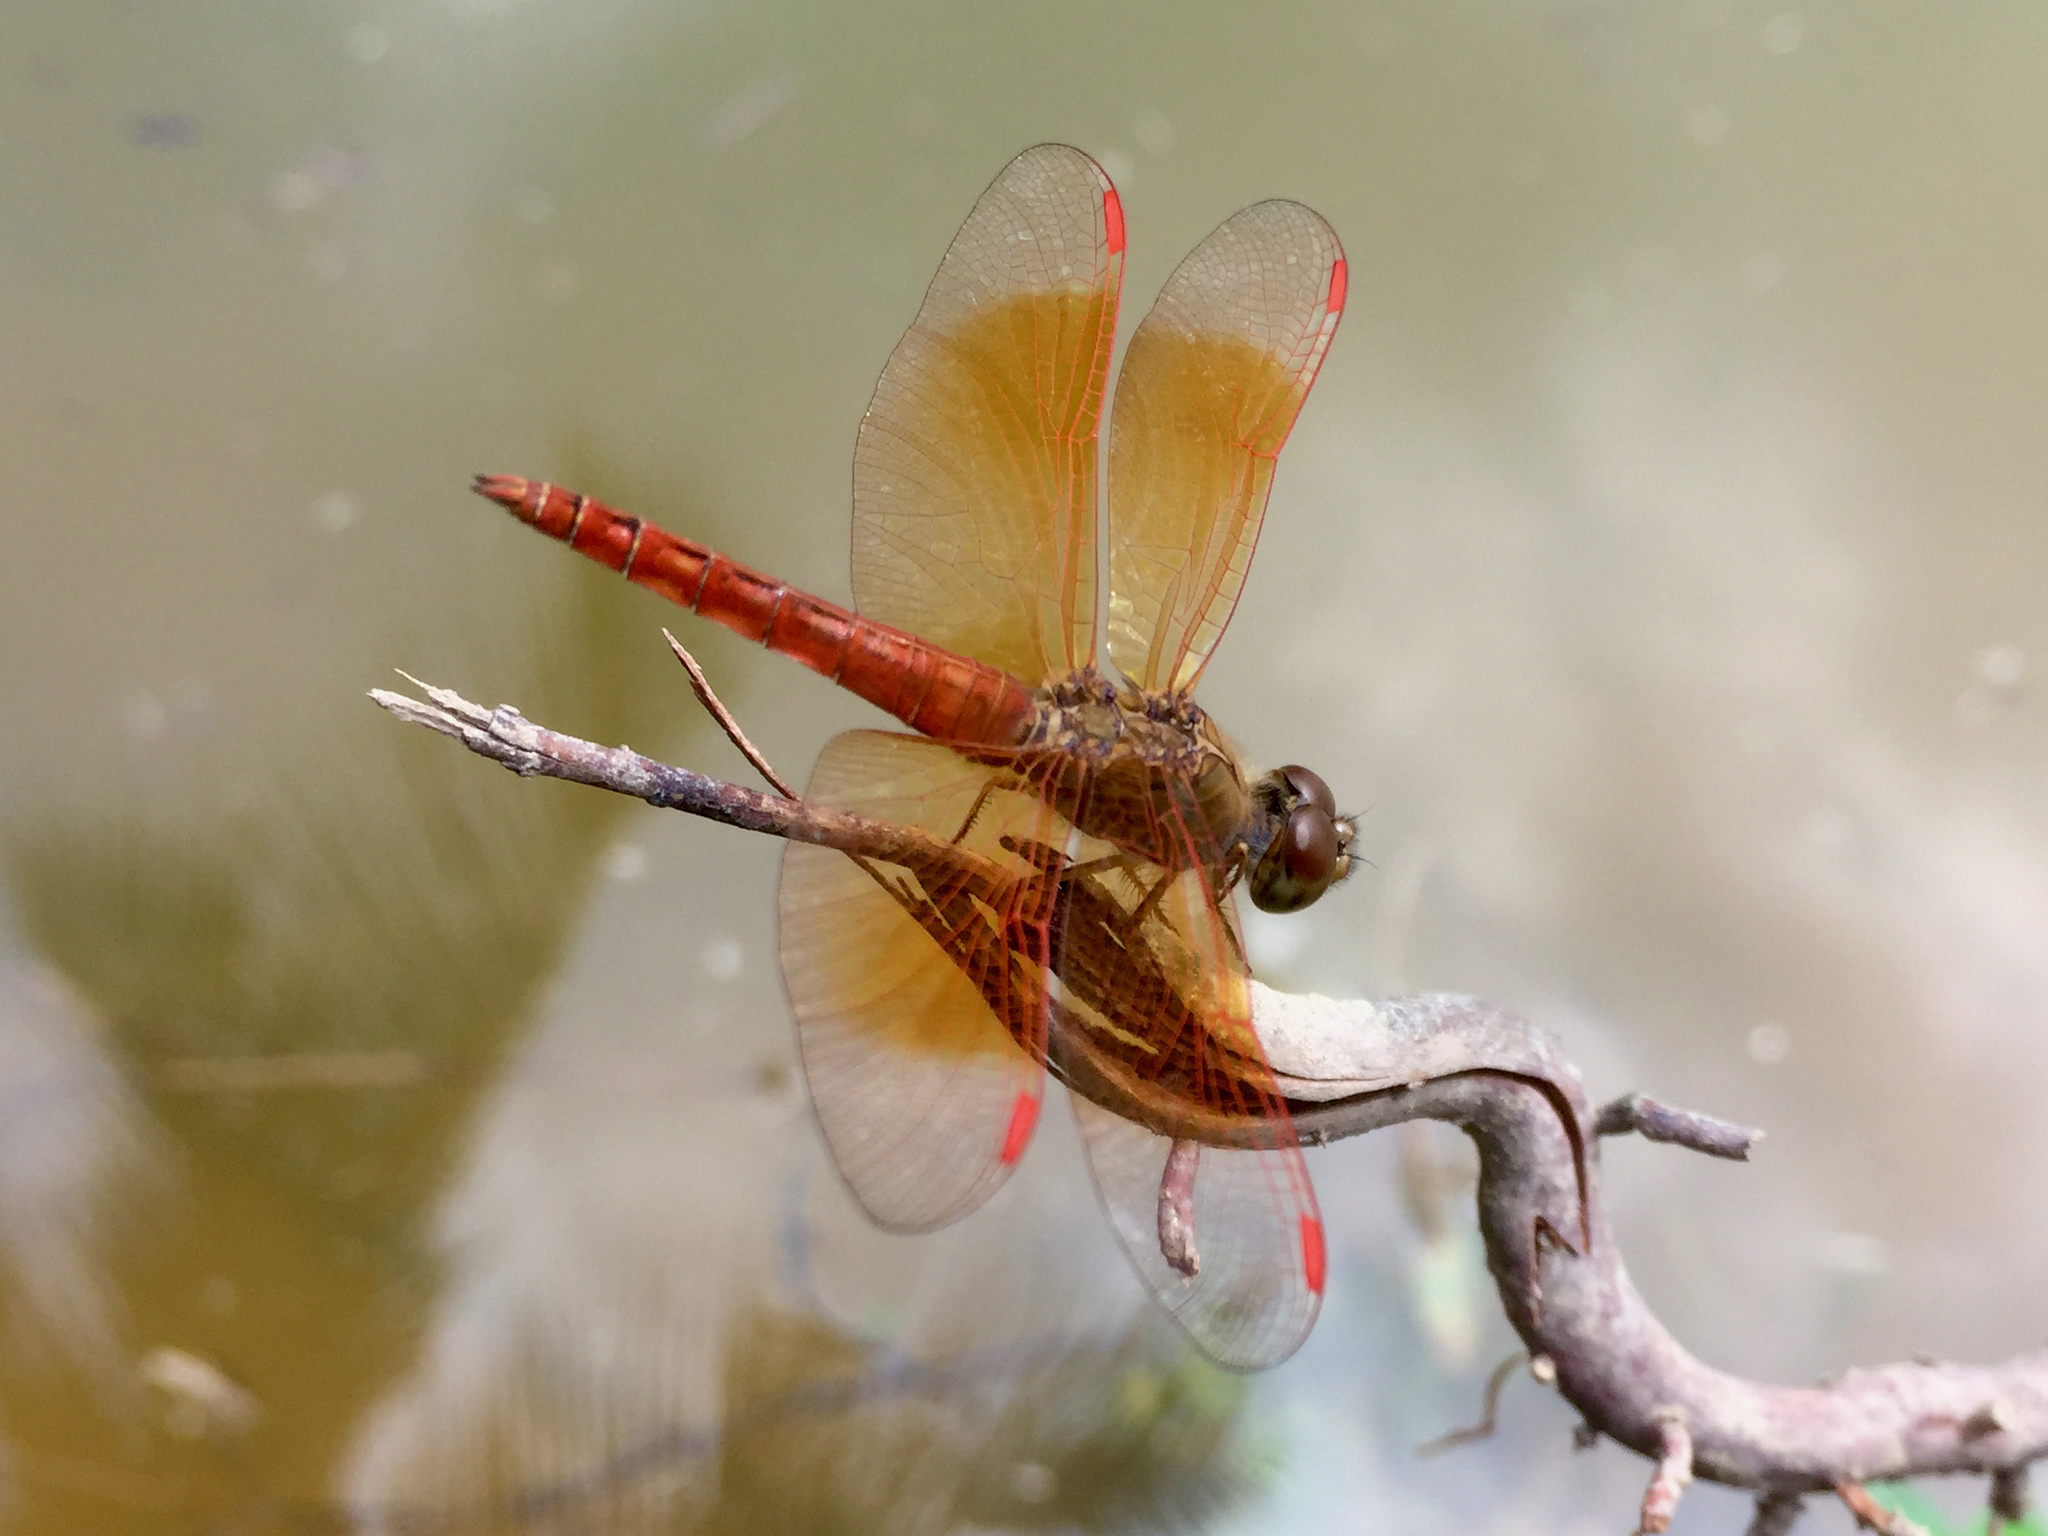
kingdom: Animalia
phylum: Arthropoda
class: Insecta
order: Odonata
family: Libellulidae
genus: Brachythemis
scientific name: Brachythemis contaminata
